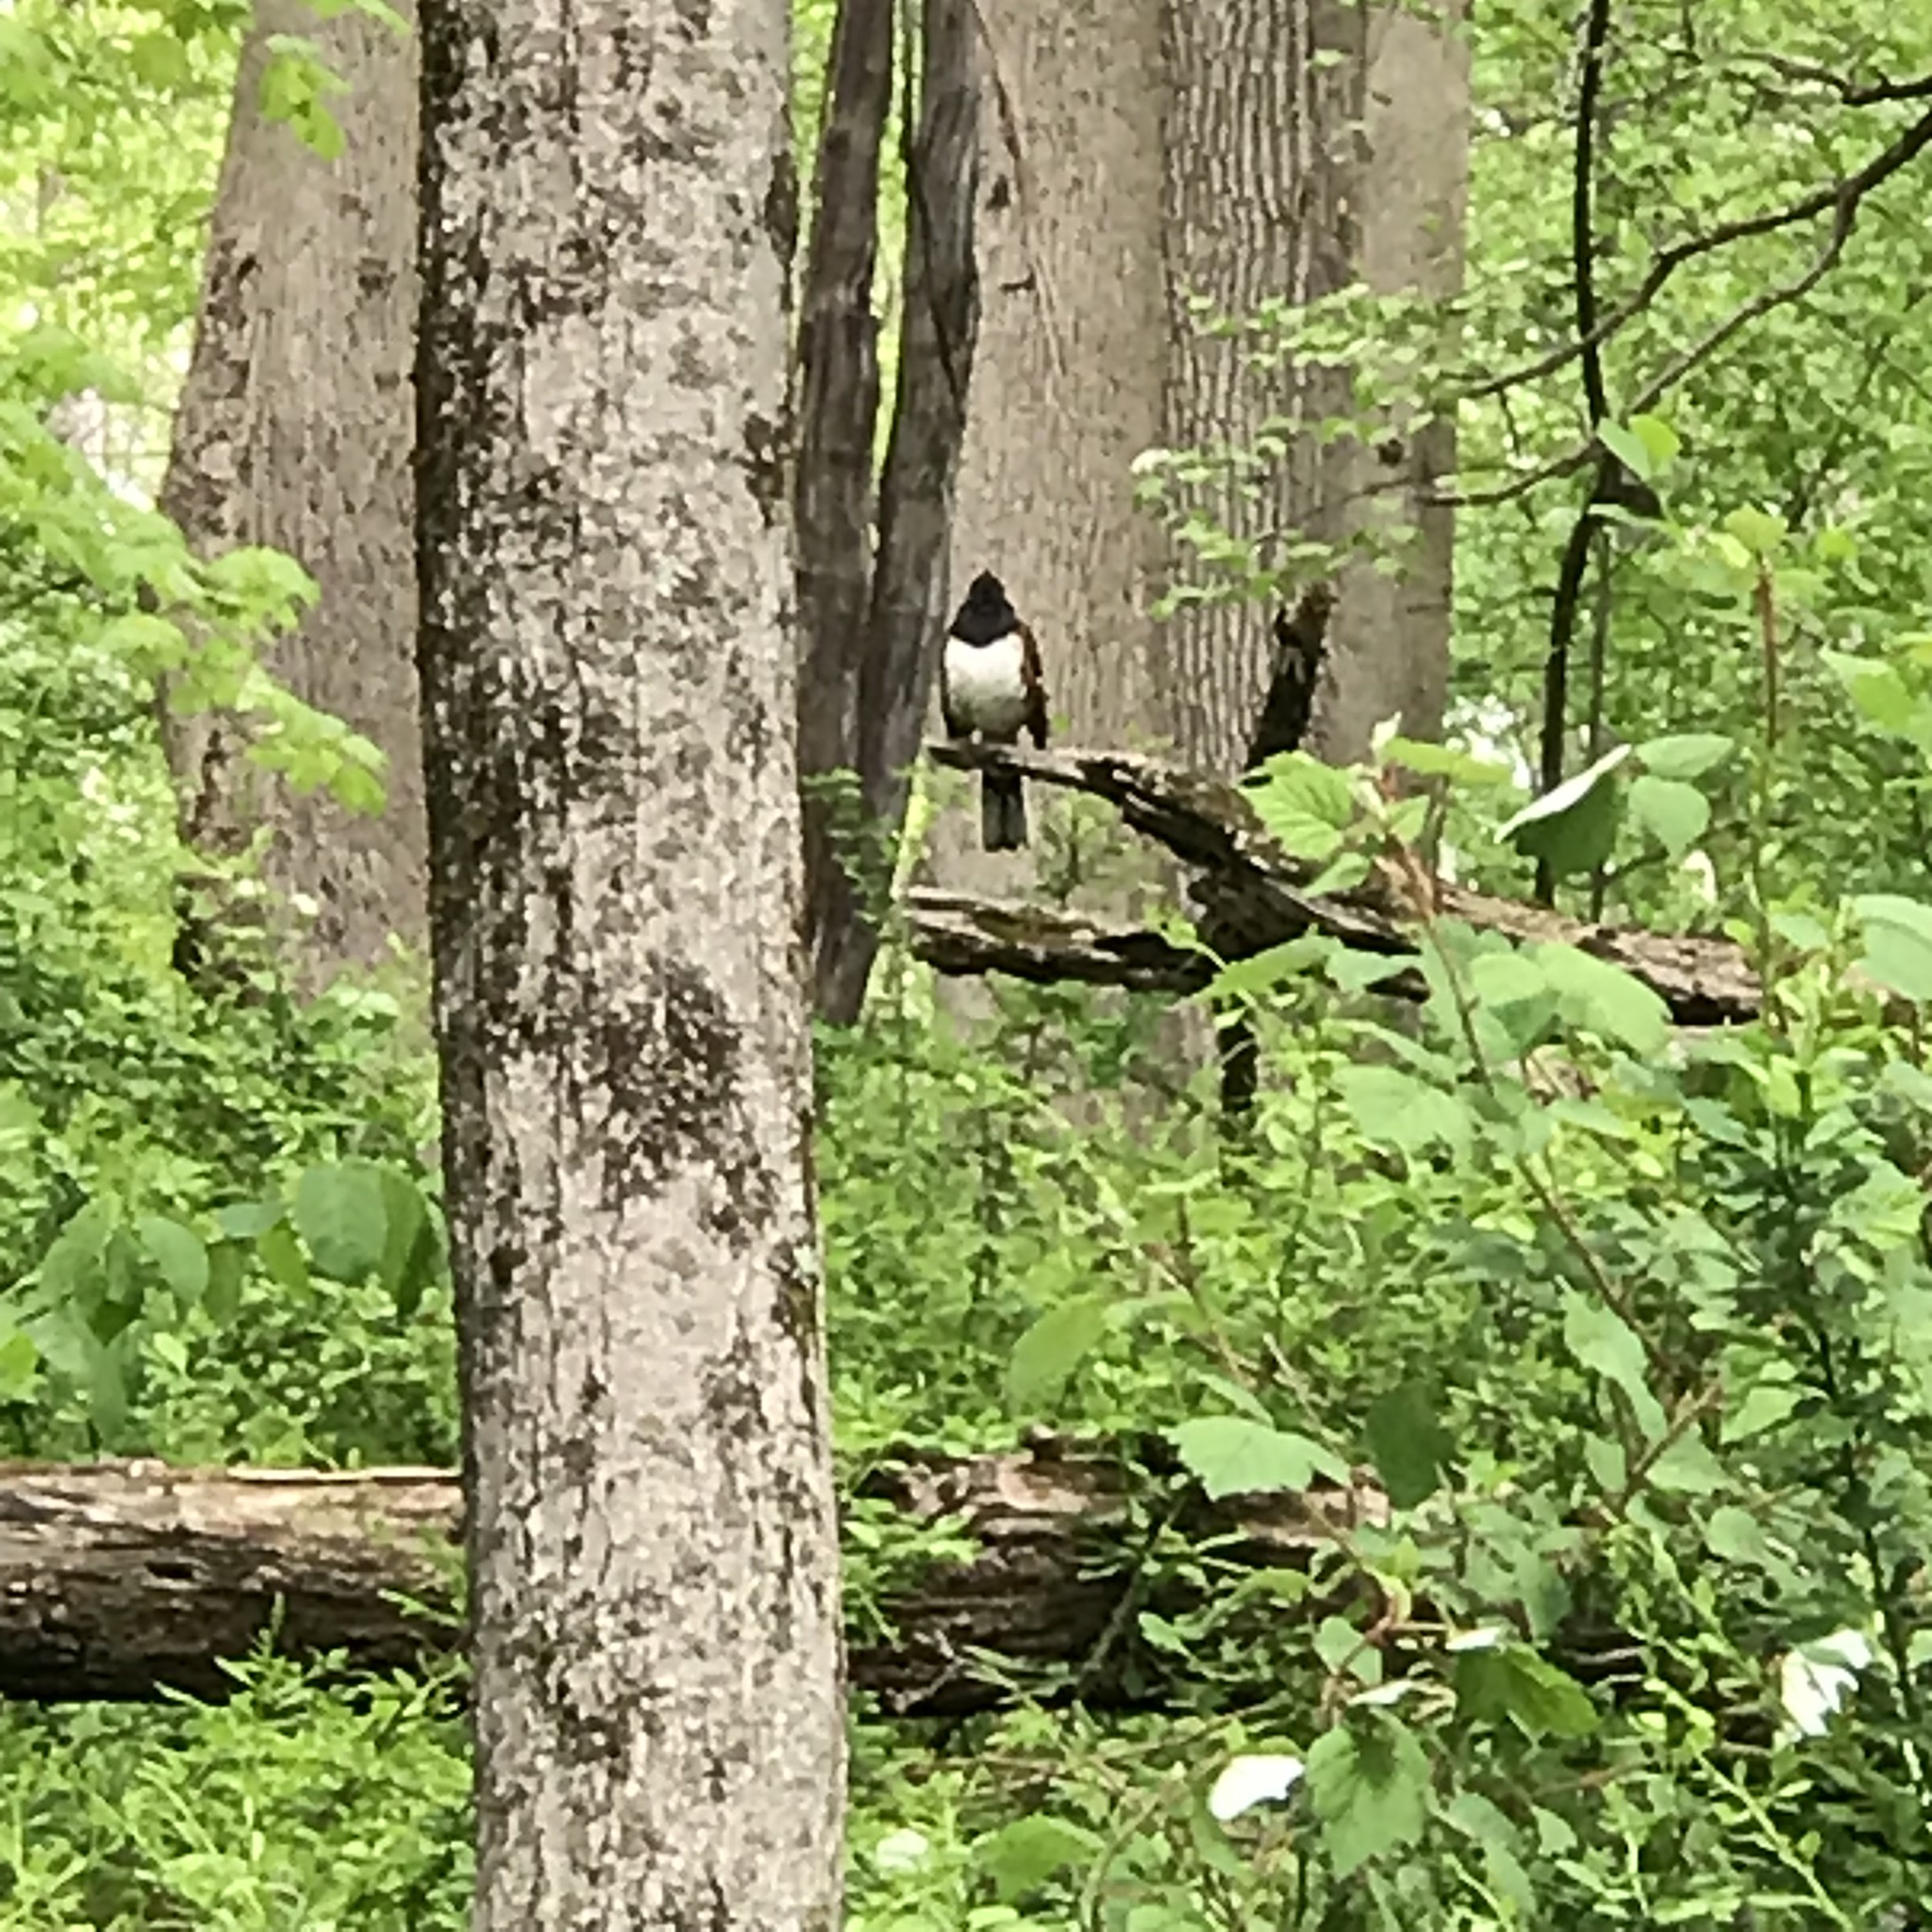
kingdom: Animalia
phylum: Chordata
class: Aves
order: Passeriformes
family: Passerellidae
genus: Pipilo
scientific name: Pipilo erythrophthalmus
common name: Eastern towhee
